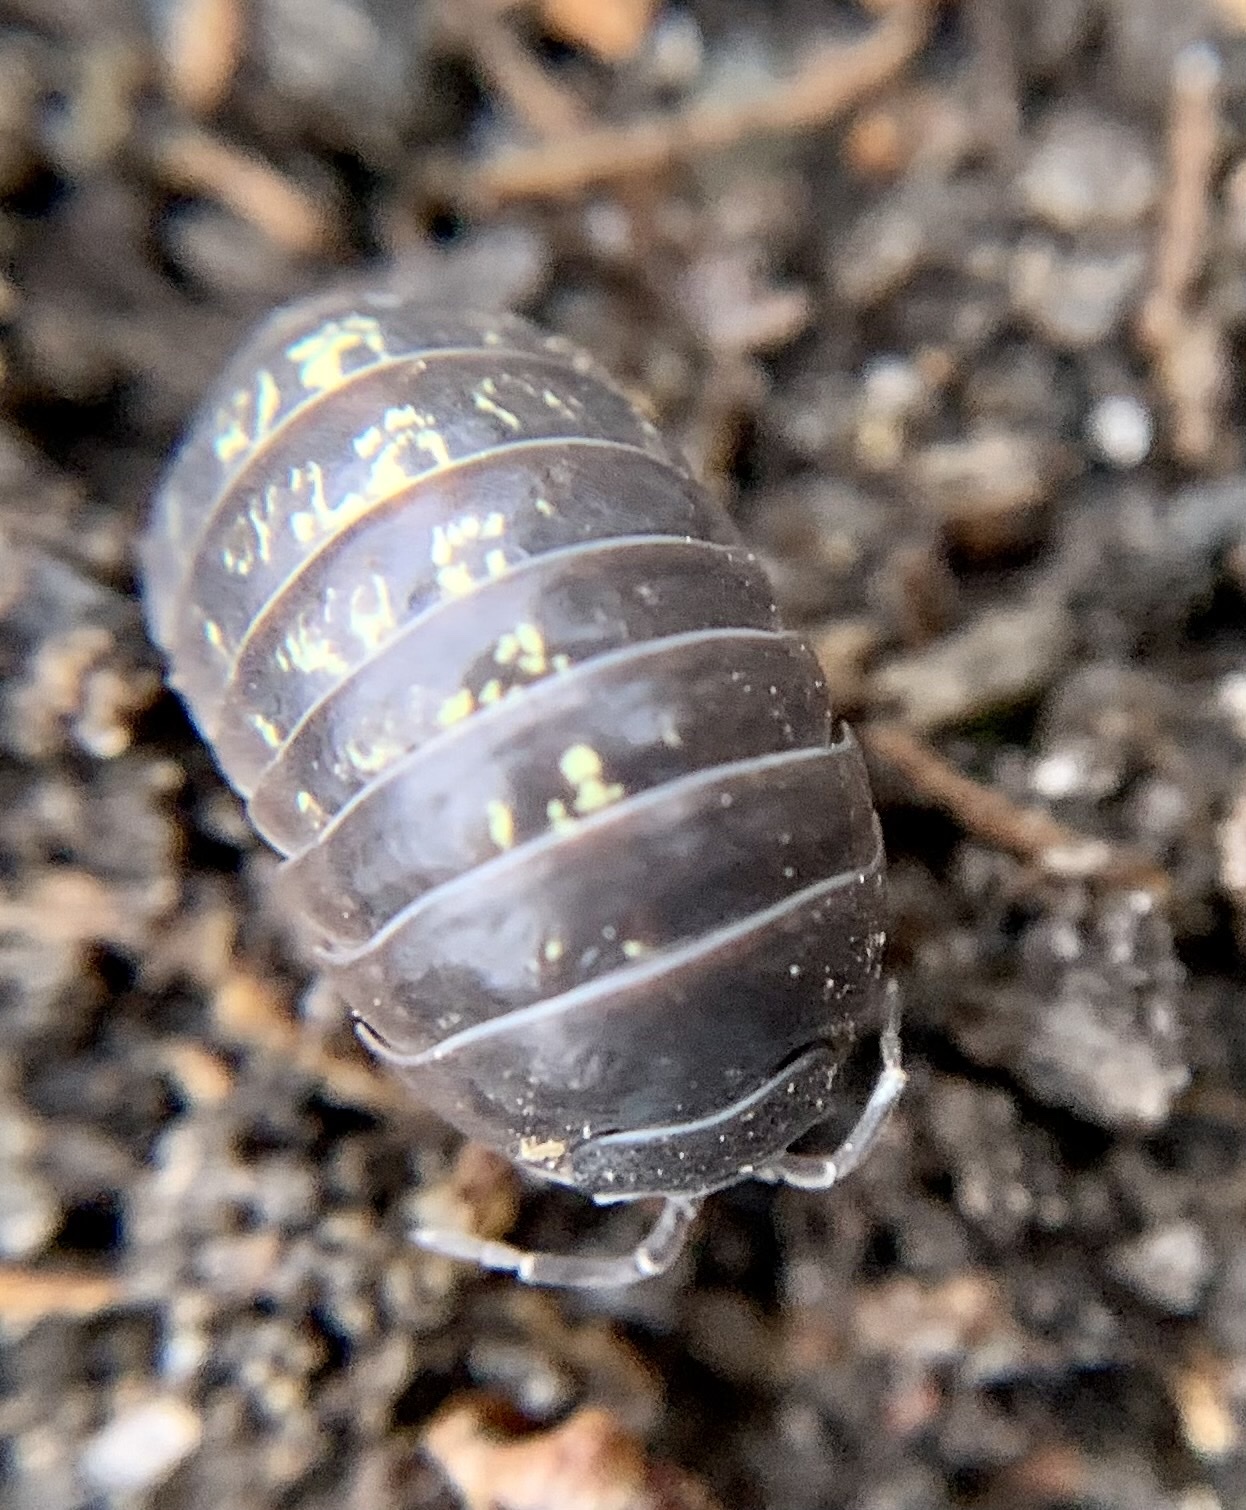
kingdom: Animalia
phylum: Arthropoda
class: Malacostraca
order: Isopoda
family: Armadillidiidae
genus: Armadillidium
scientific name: Armadillidium vulgare
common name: Common pill woodlouse
